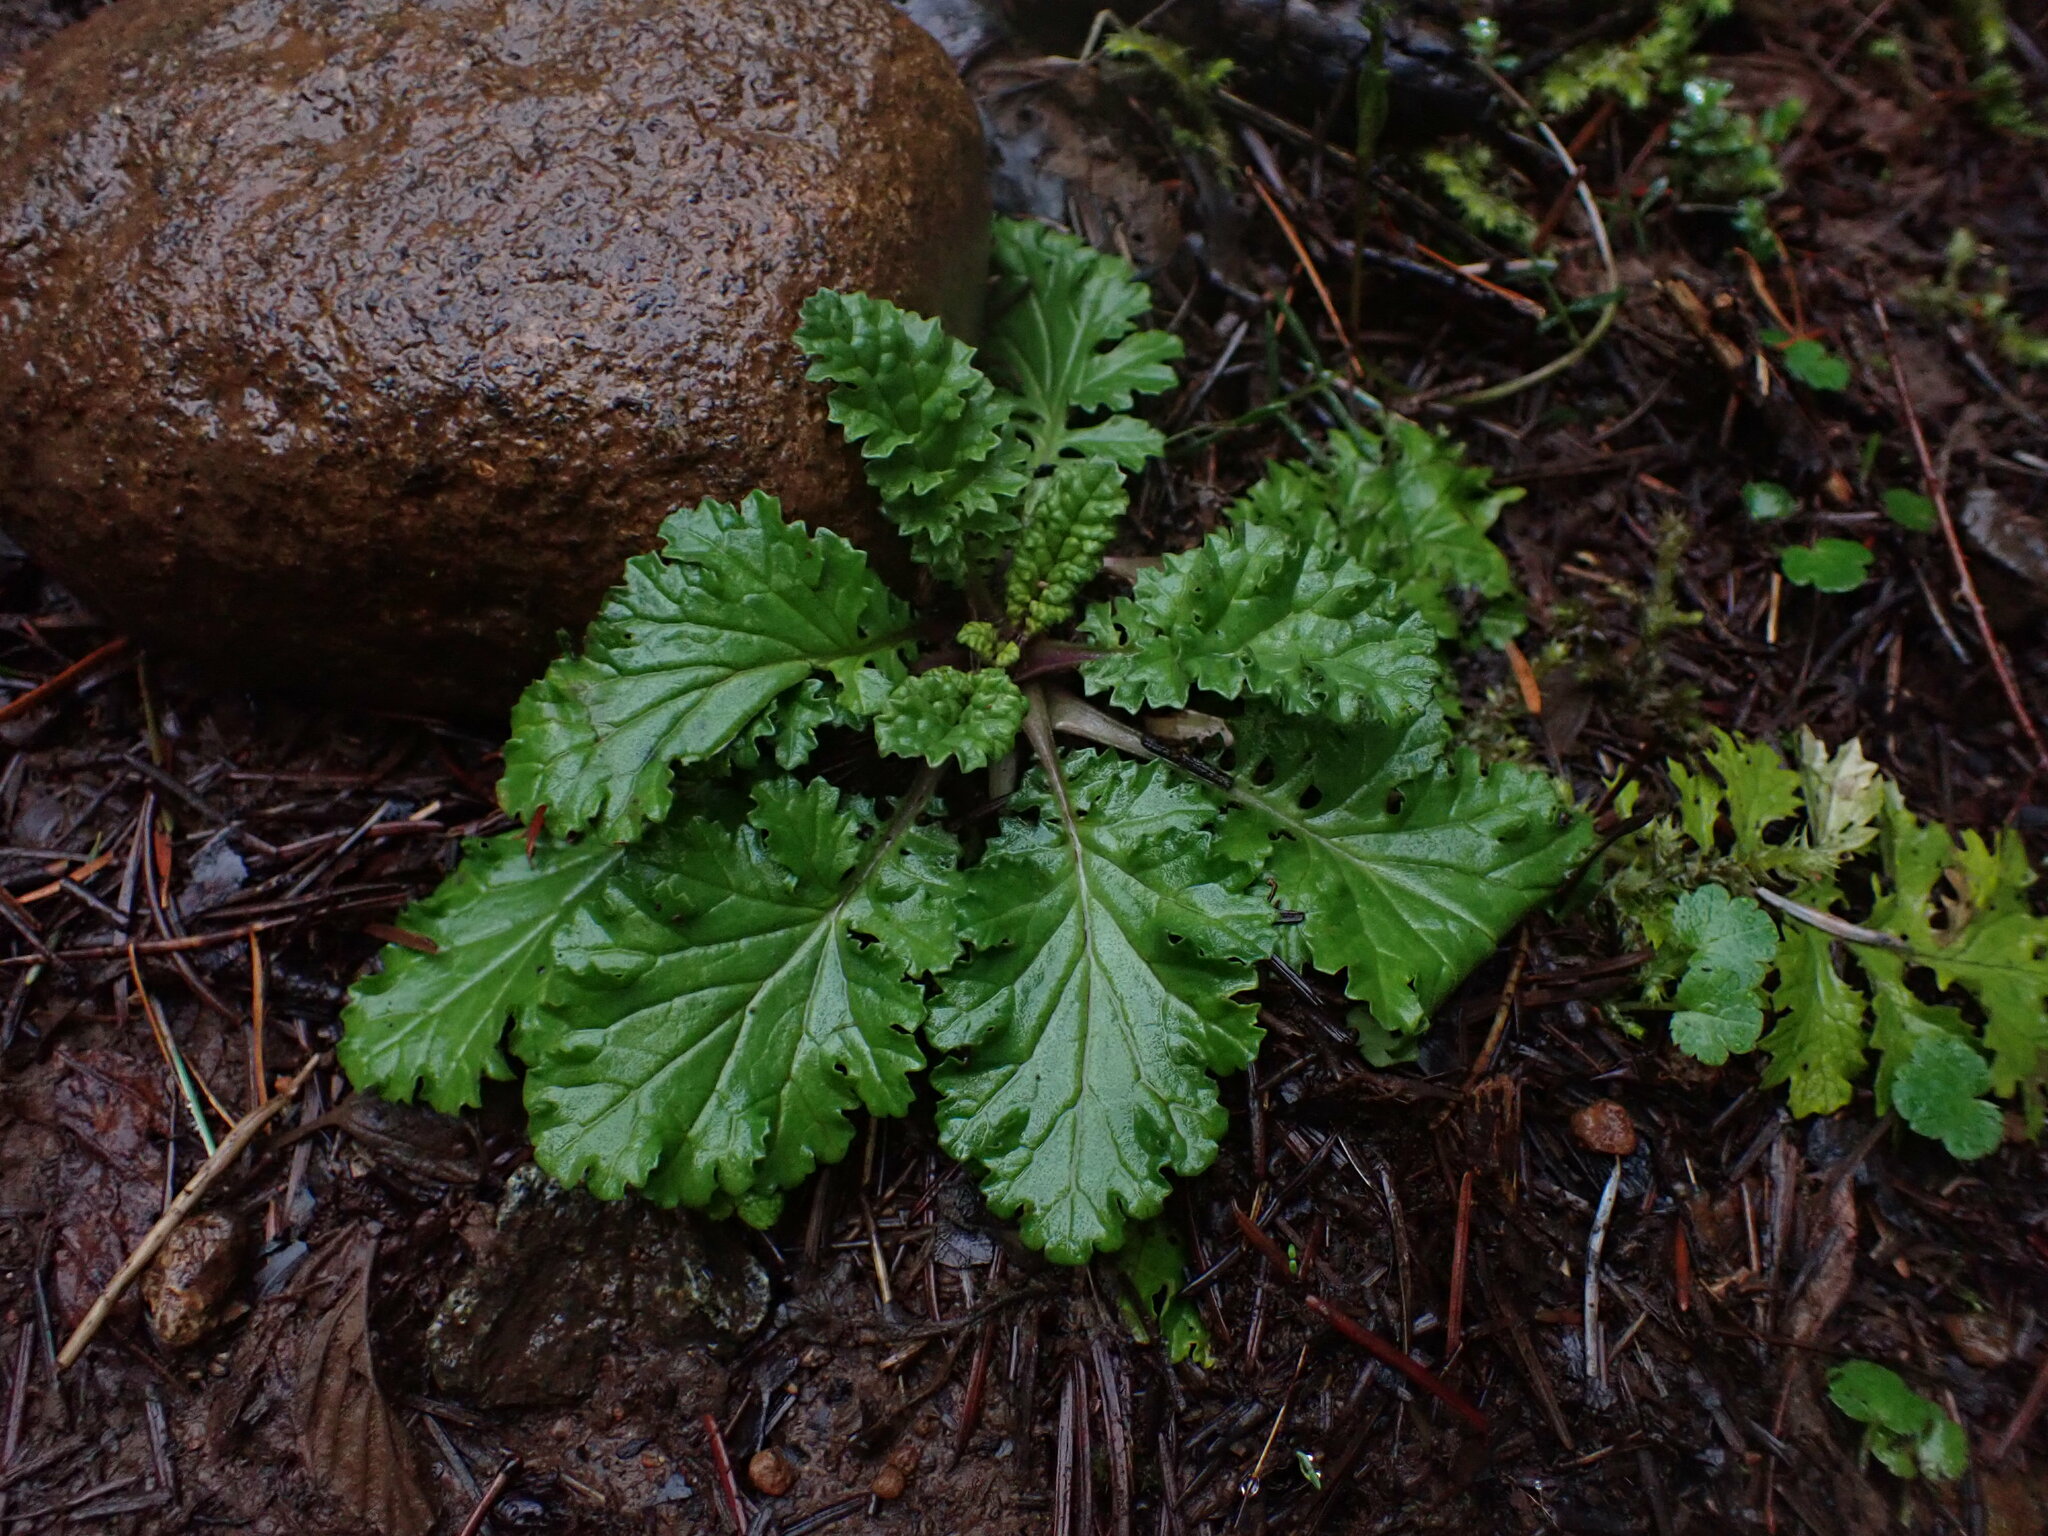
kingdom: Plantae
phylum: Tracheophyta
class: Magnoliopsida
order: Asterales
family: Asteraceae
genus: Jacobaea
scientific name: Jacobaea vulgaris
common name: Stinking willie
